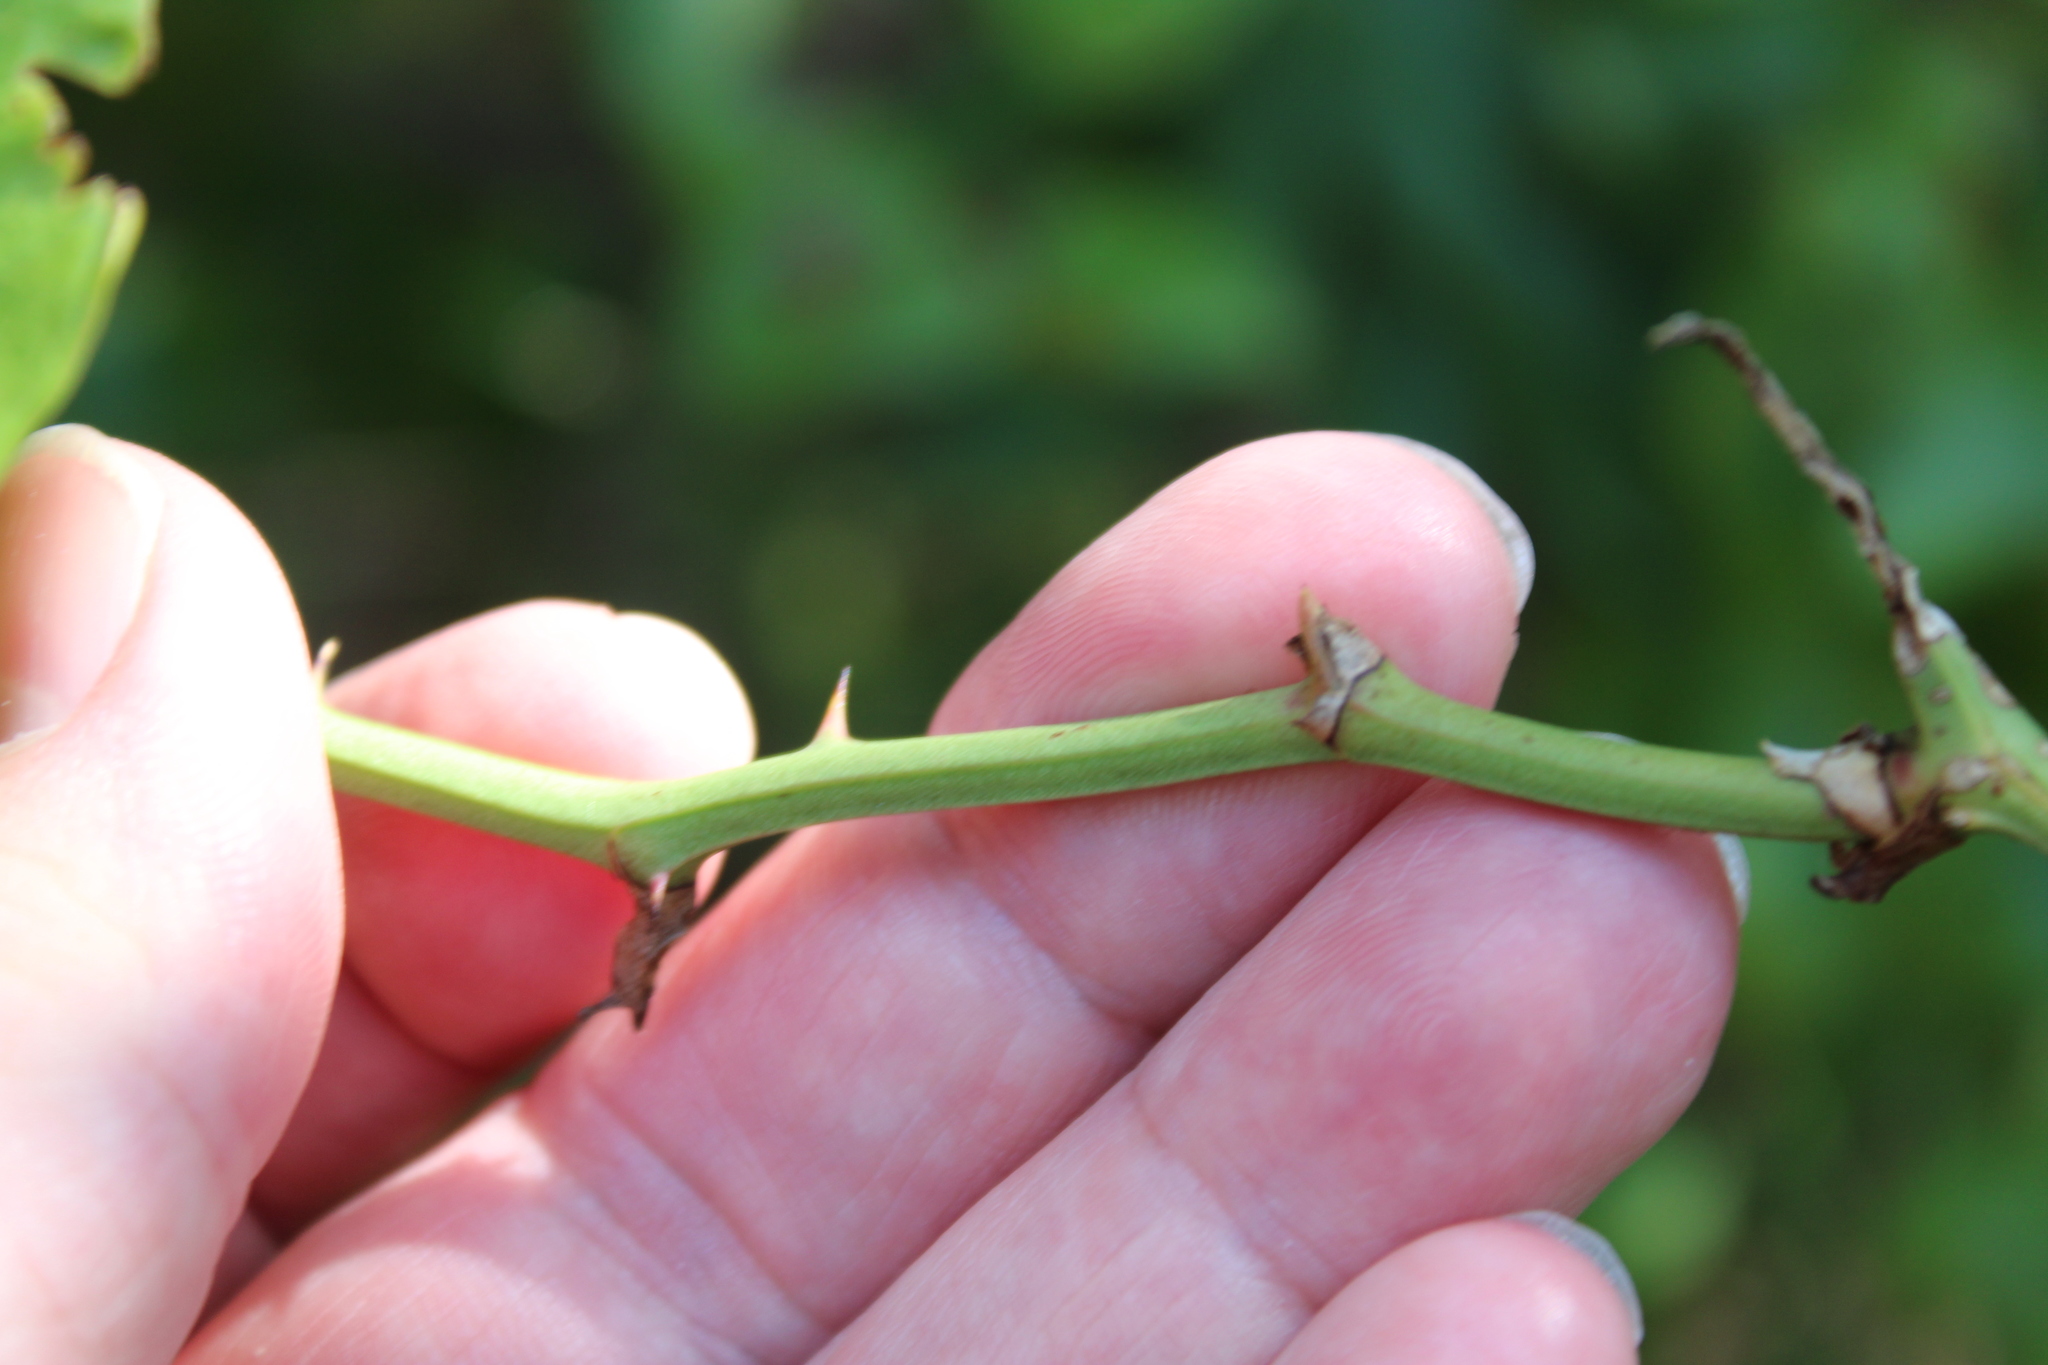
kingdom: Plantae
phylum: Tracheophyta
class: Liliopsida
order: Liliales
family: Smilacaceae
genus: Smilax
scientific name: Smilax bona-nox
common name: Catbrier
